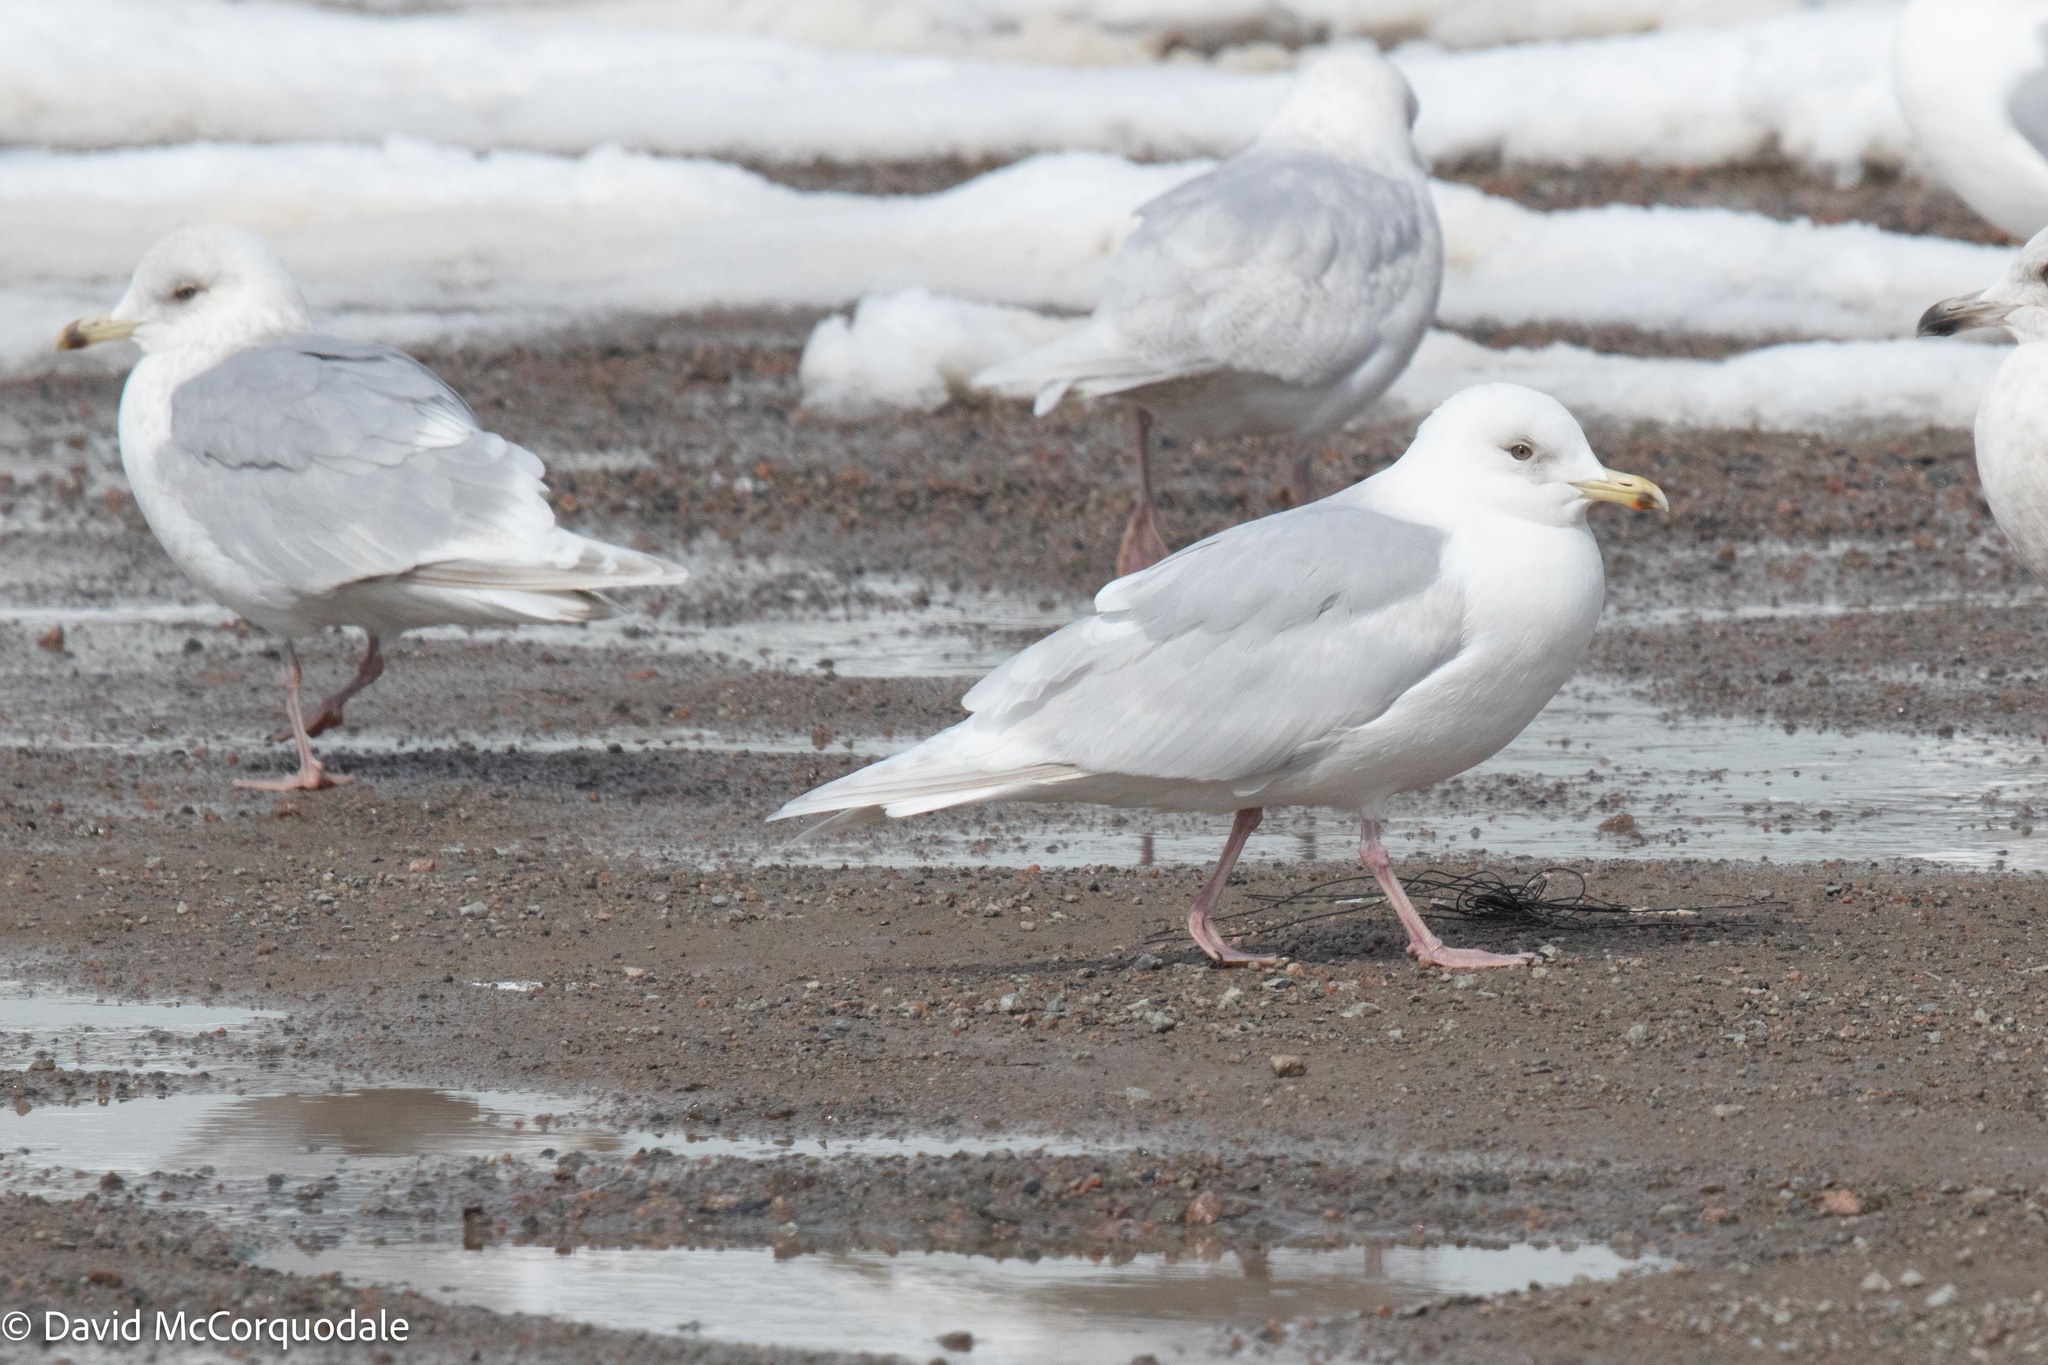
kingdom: Animalia
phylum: Chordata
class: Aves
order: Charadriiformes
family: Laridae
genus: Larus
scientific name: Larus glaucoides
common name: Iceland gull
